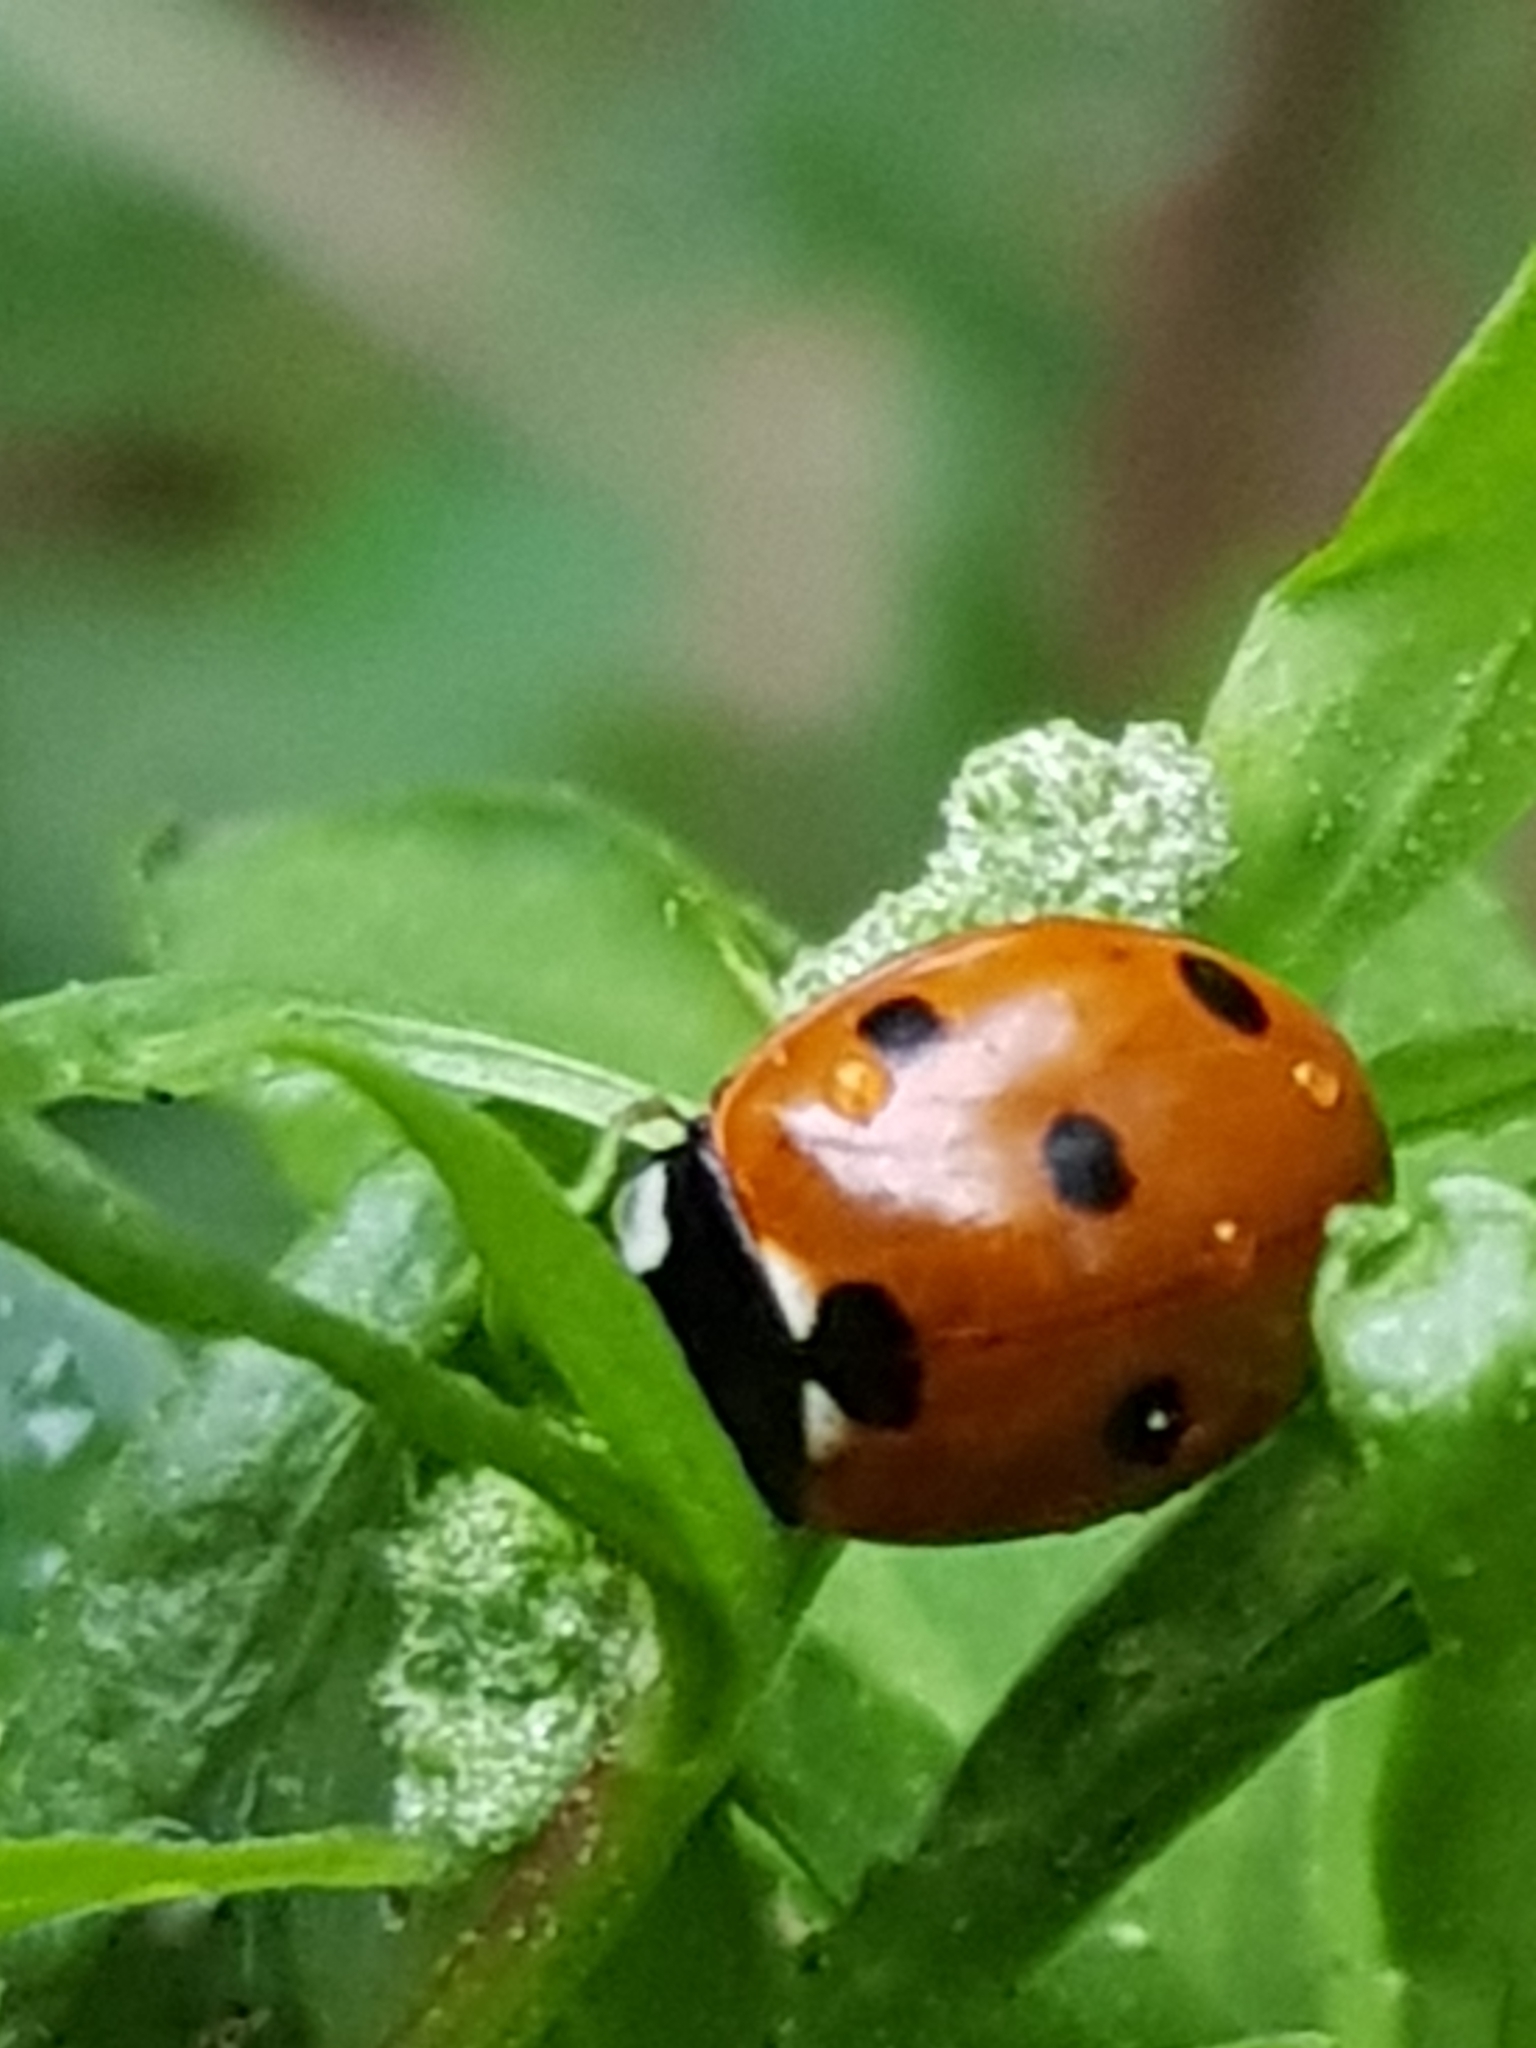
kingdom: Animalia
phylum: Arthropoda
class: Insecta
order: Coleoptera
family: Coccinellidae
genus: Coccinella
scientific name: Coccinella septempunctata
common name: Sevenspotted lady beetle
